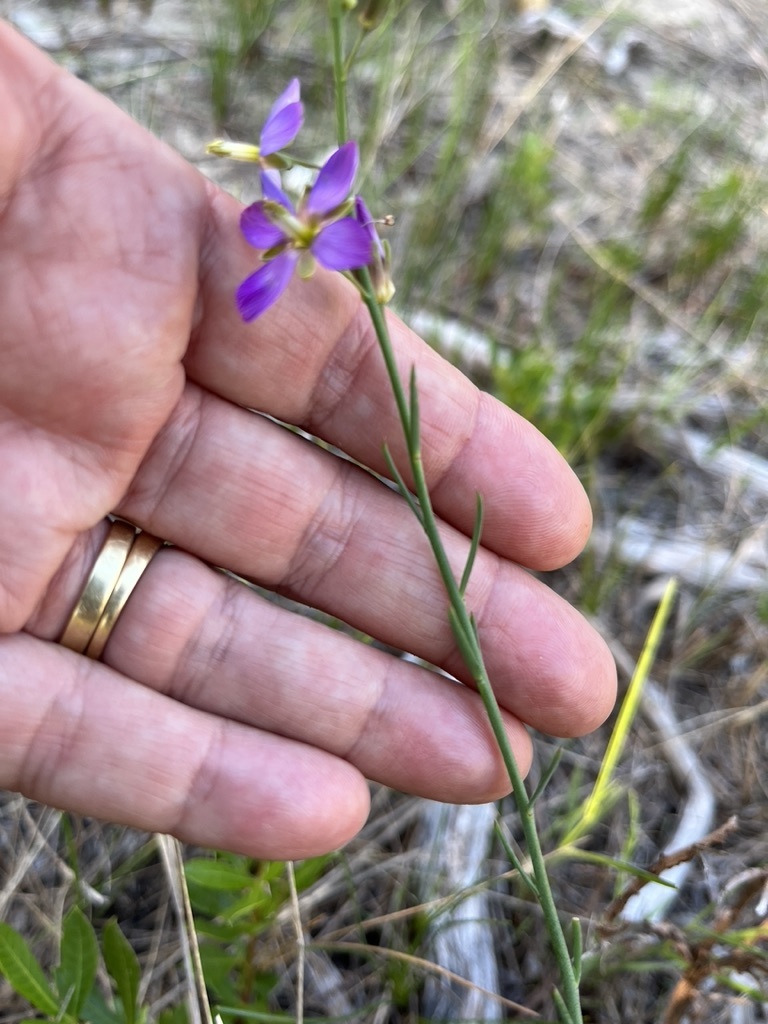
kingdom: Plantae
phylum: Tracheophyta
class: Magnoliopsida
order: Brassicales
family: Brassicaceae
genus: Heliophila
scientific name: Heliophila linearis
